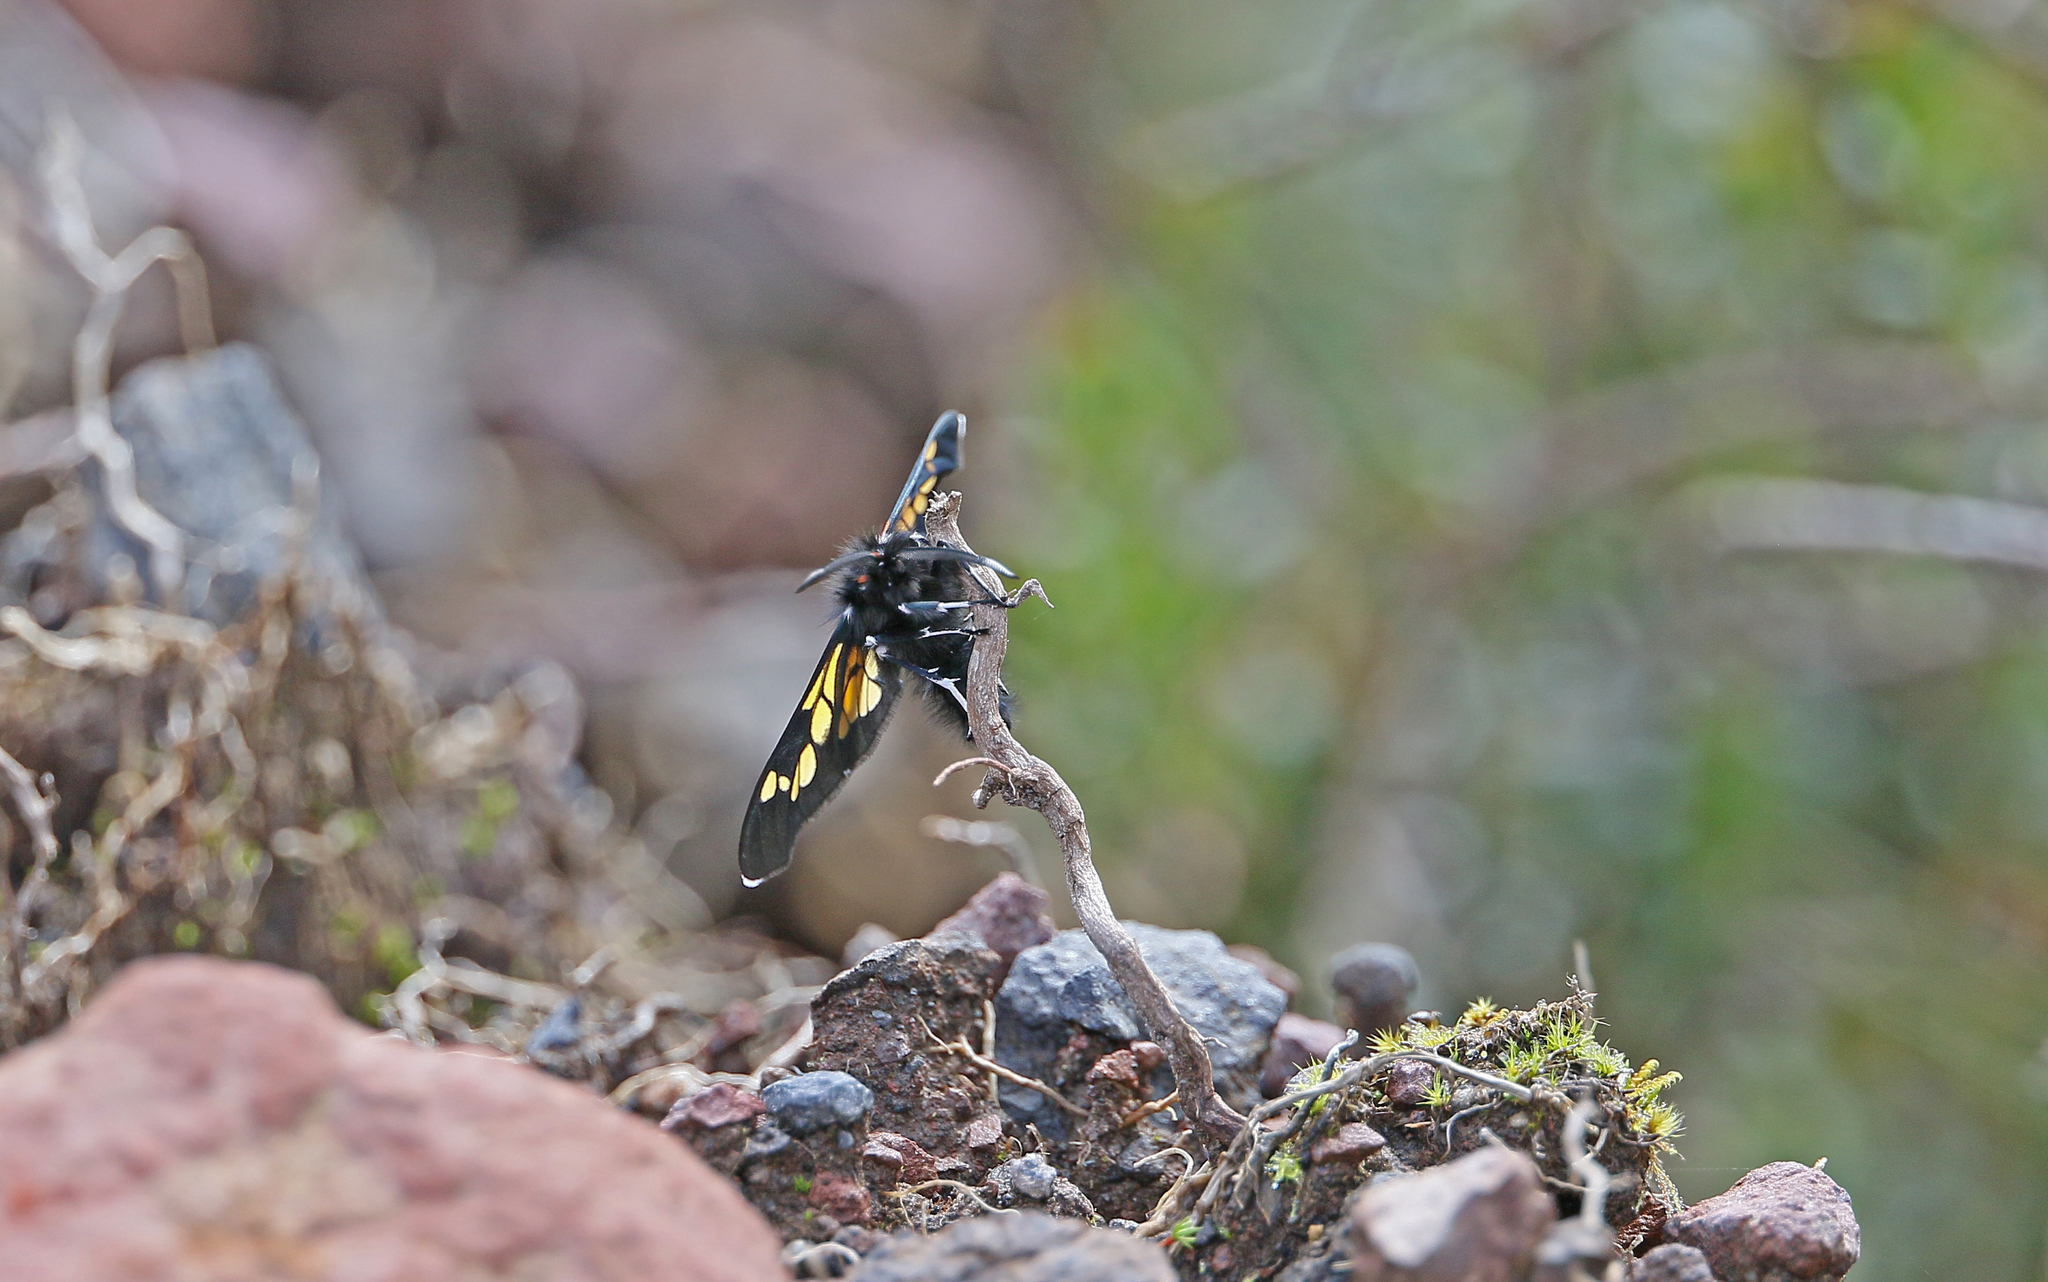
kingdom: Animalia
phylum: Arthropoda
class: Insecta
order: Lepidoptera
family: Erebidae
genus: Enope
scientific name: Enope tolumnensis
